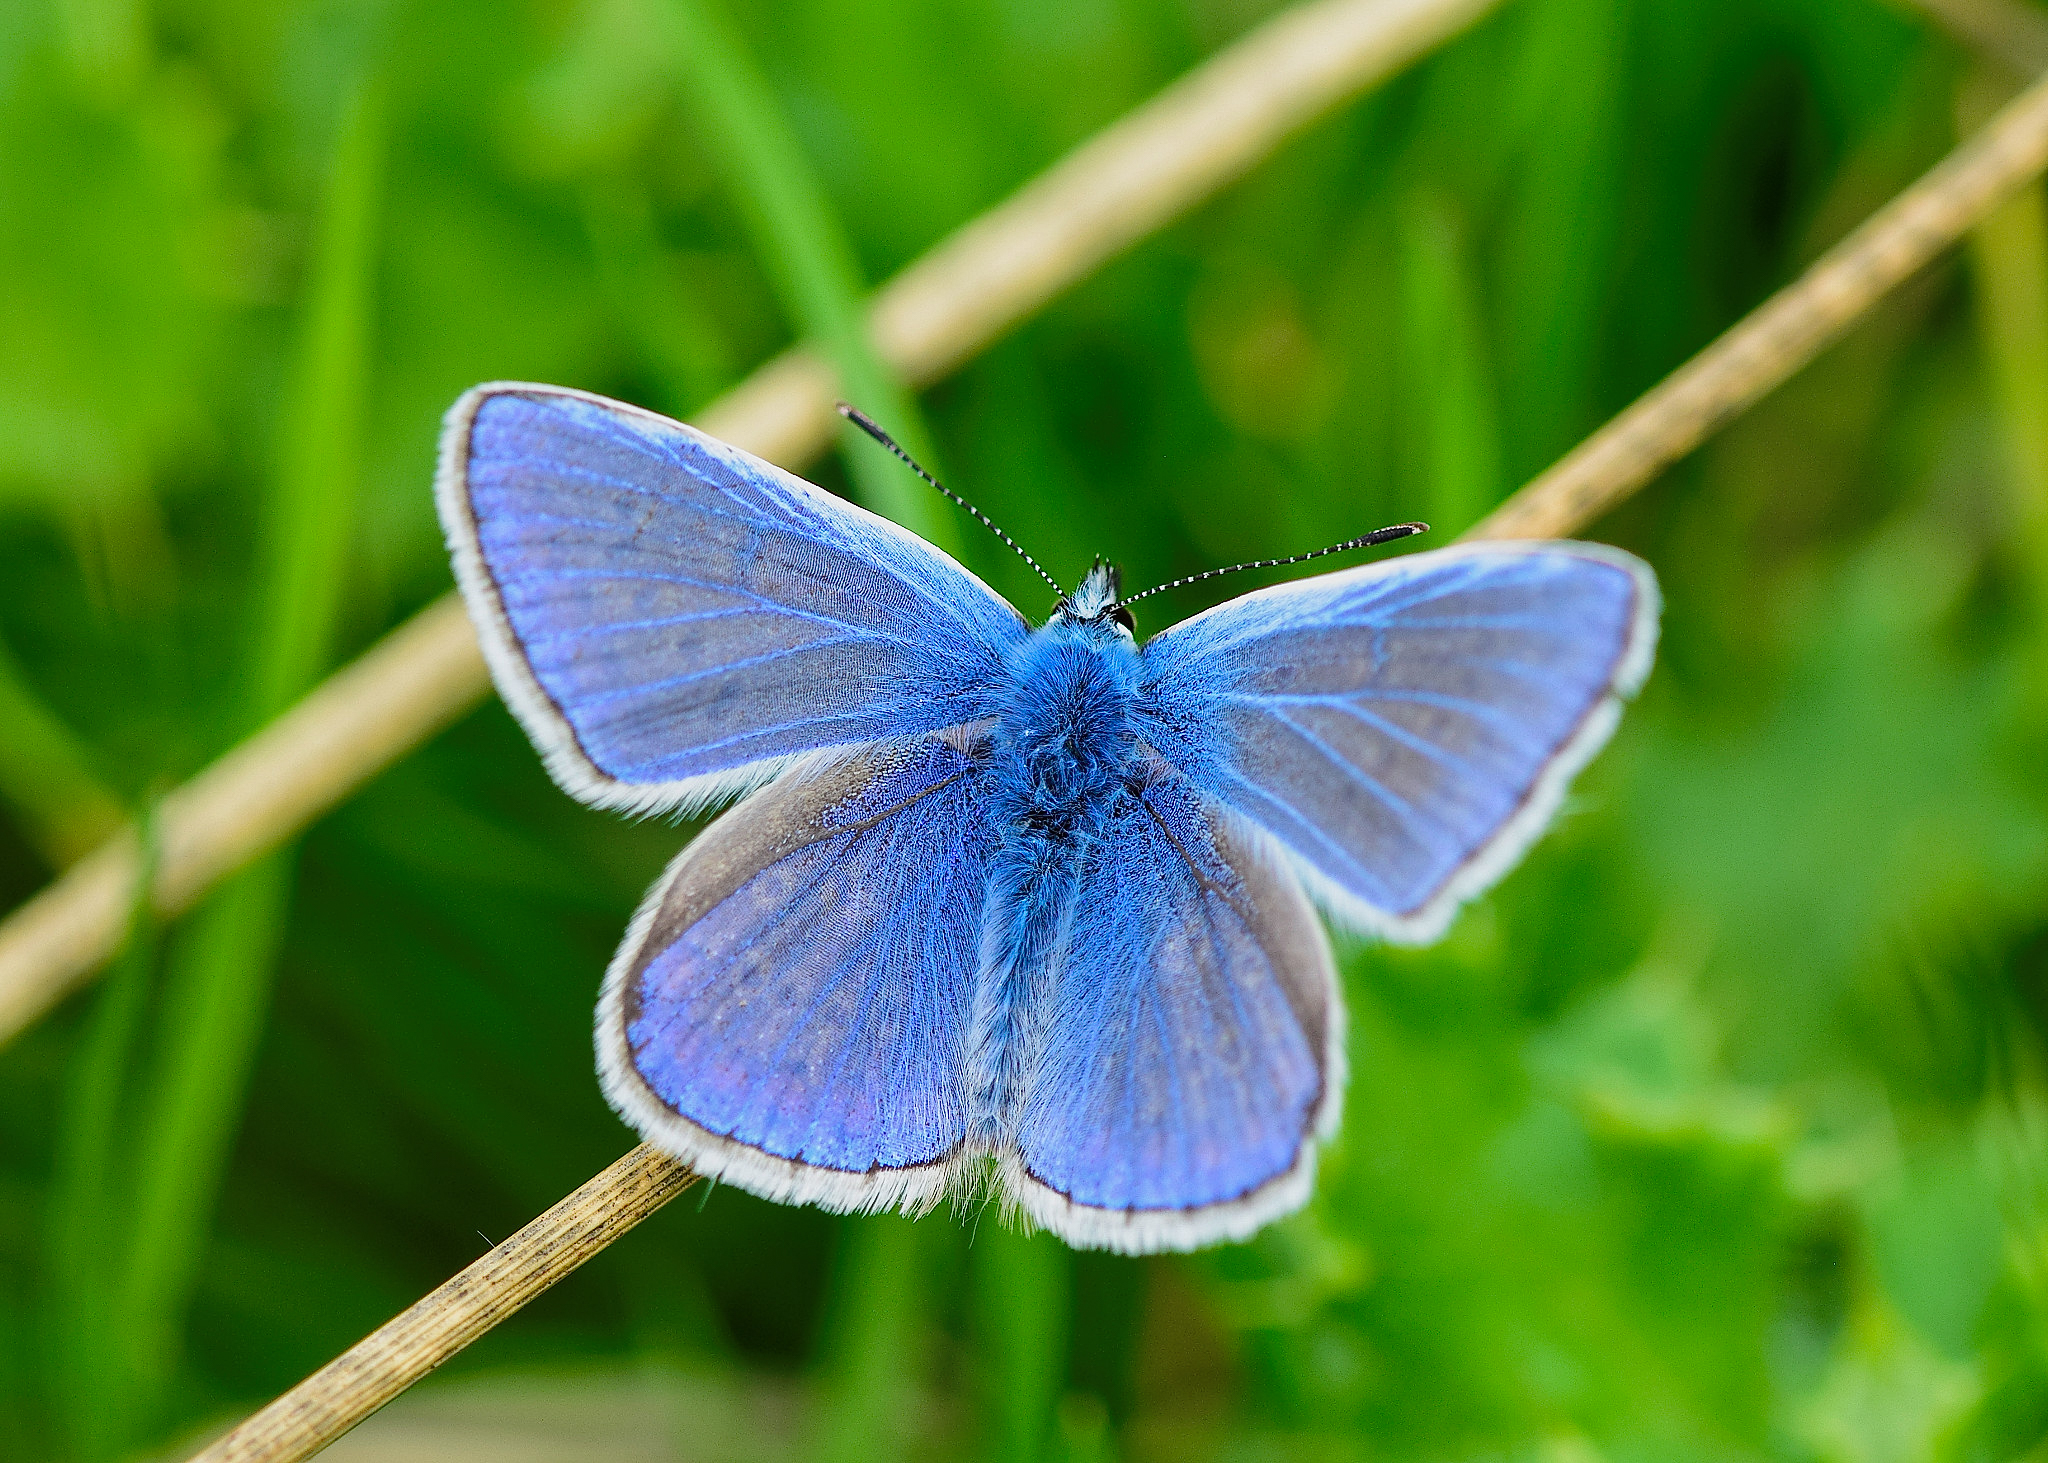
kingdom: Animalia
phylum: Arthropoda
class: Insecta
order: Lepidoptera
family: Lycaenidae
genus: Polyommatus
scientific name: Polyommatus icarus
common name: Common blue
